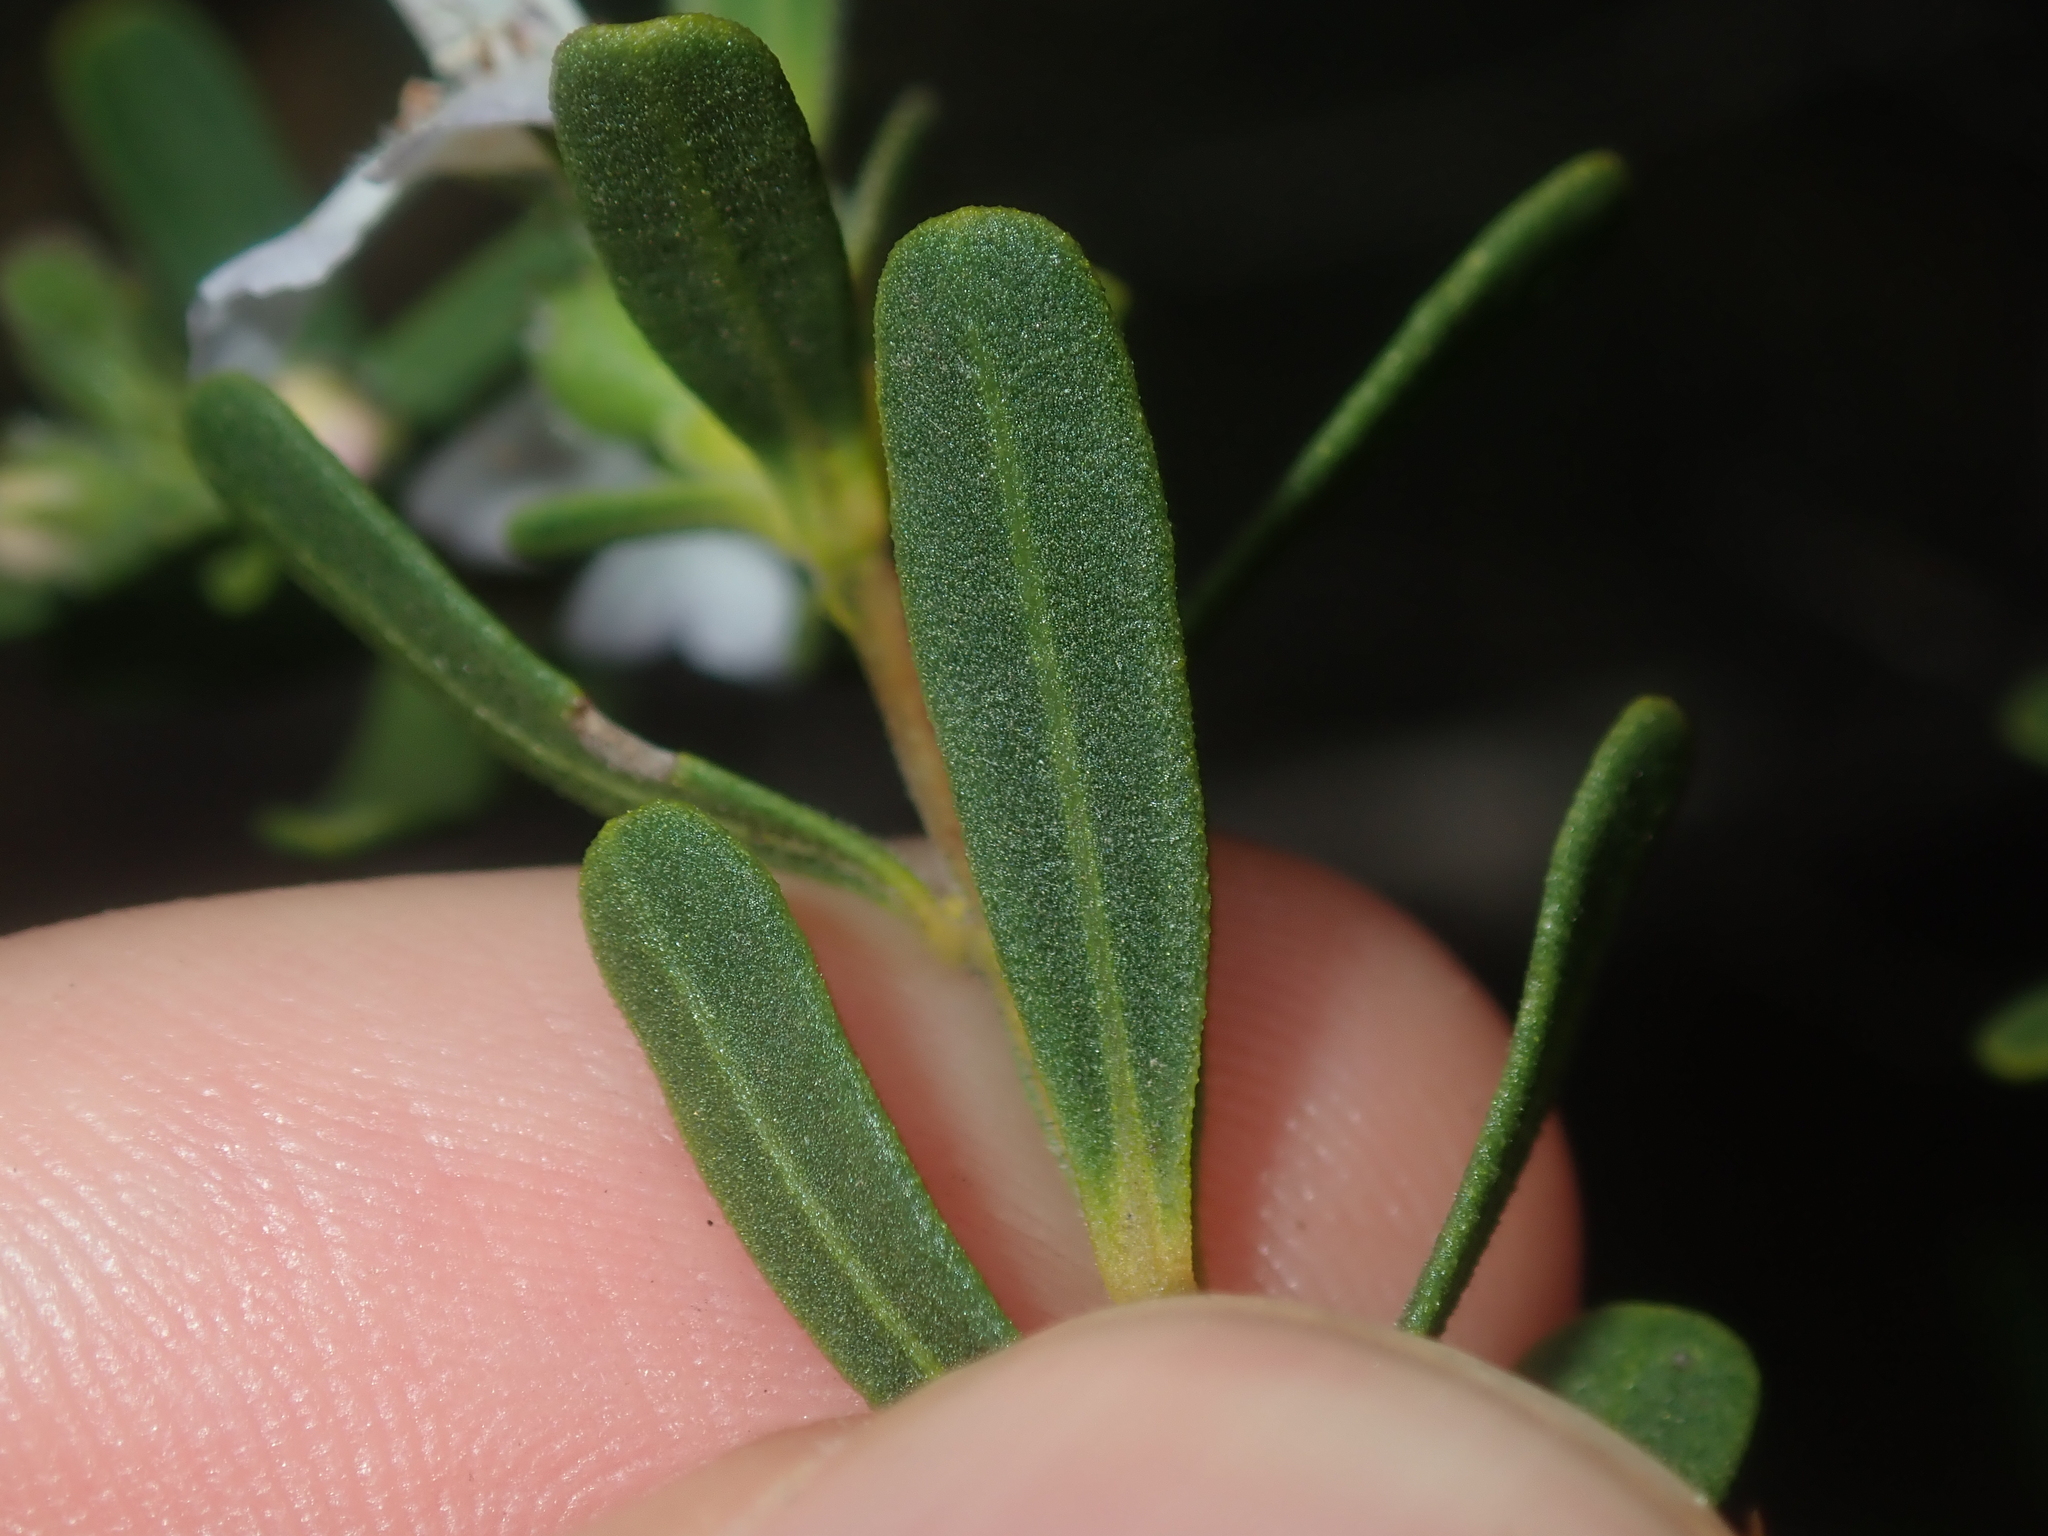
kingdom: Plantae
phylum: Tracheophyta
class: Magnoliopsida
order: Lamiales
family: Lamiaceae
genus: Hemigenia
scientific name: Hemigenia scabra
